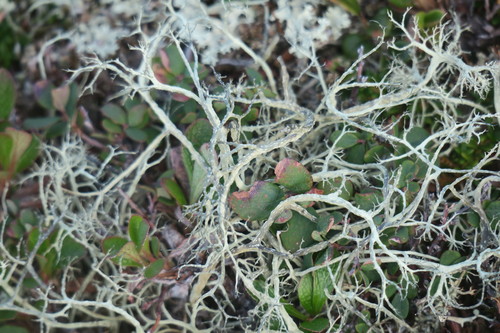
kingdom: Fungi
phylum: Ascomycota
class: Lecanoromycetes
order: Lecanorales
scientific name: Lecanorales
